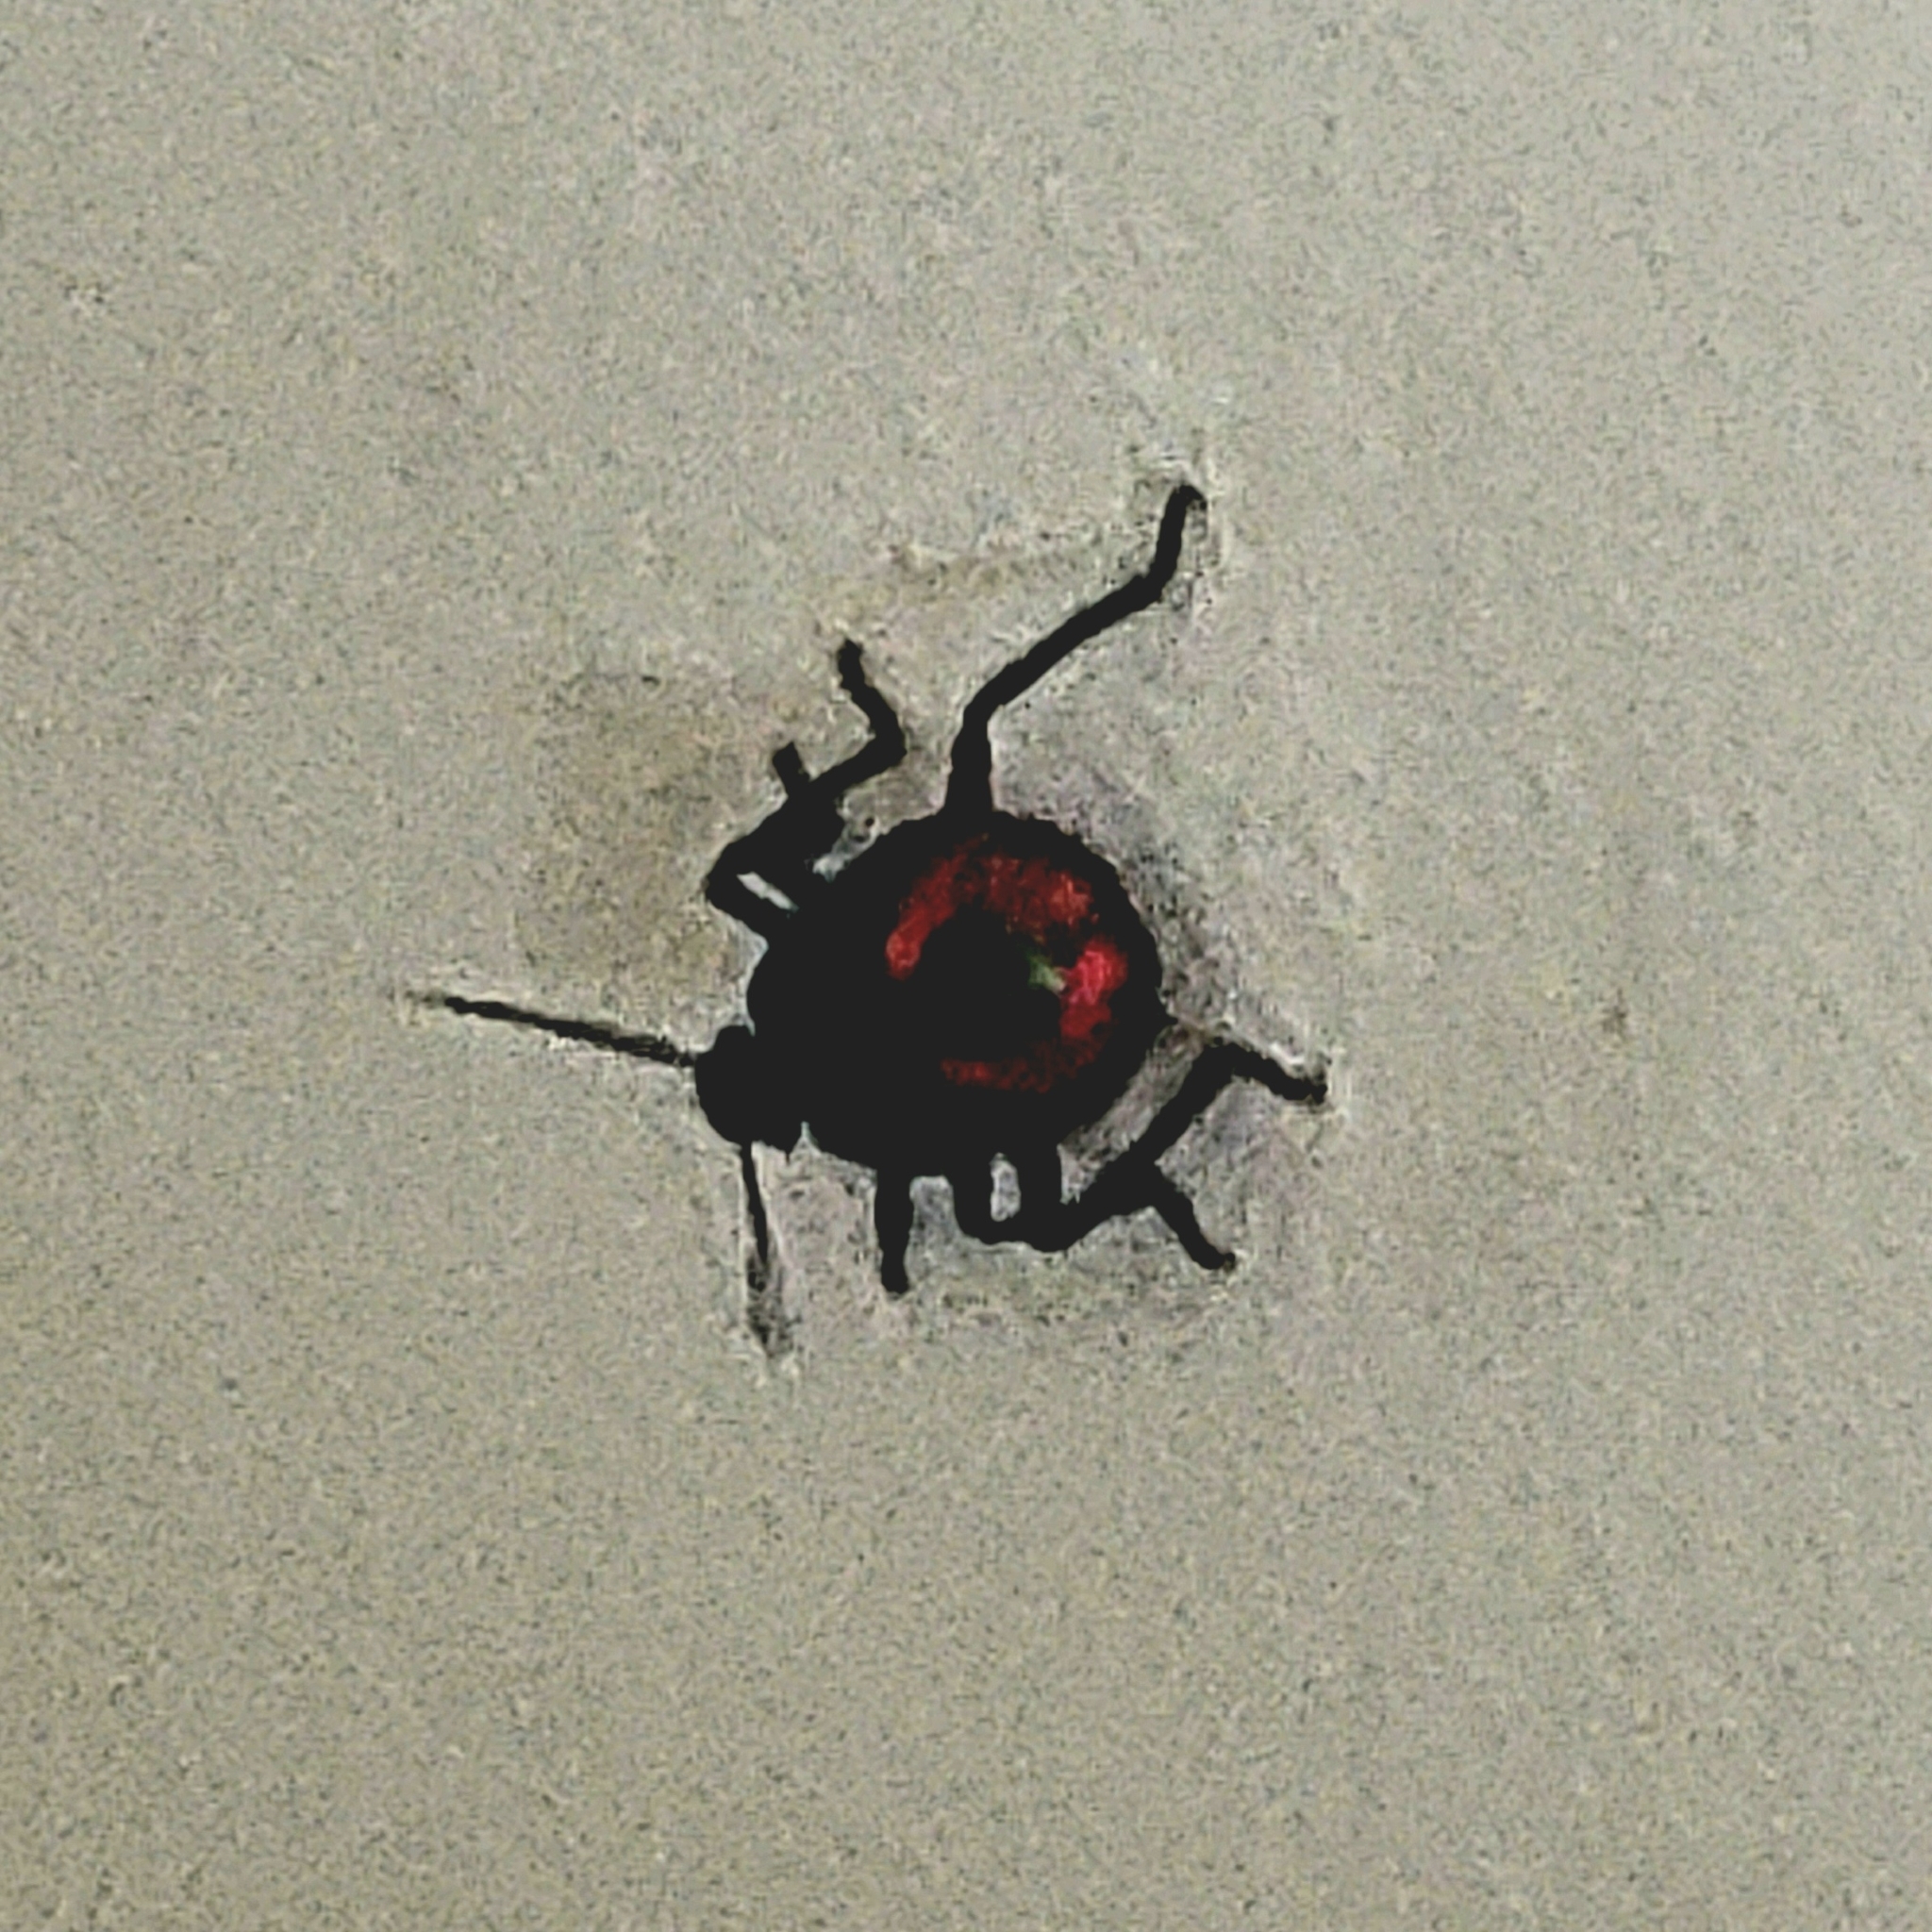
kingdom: Animalia
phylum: Arthropoda
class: Insecta
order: Hemiptera
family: Pentatomidae
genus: Euthyrhynchus
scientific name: Euthyrhynchus floridanus
